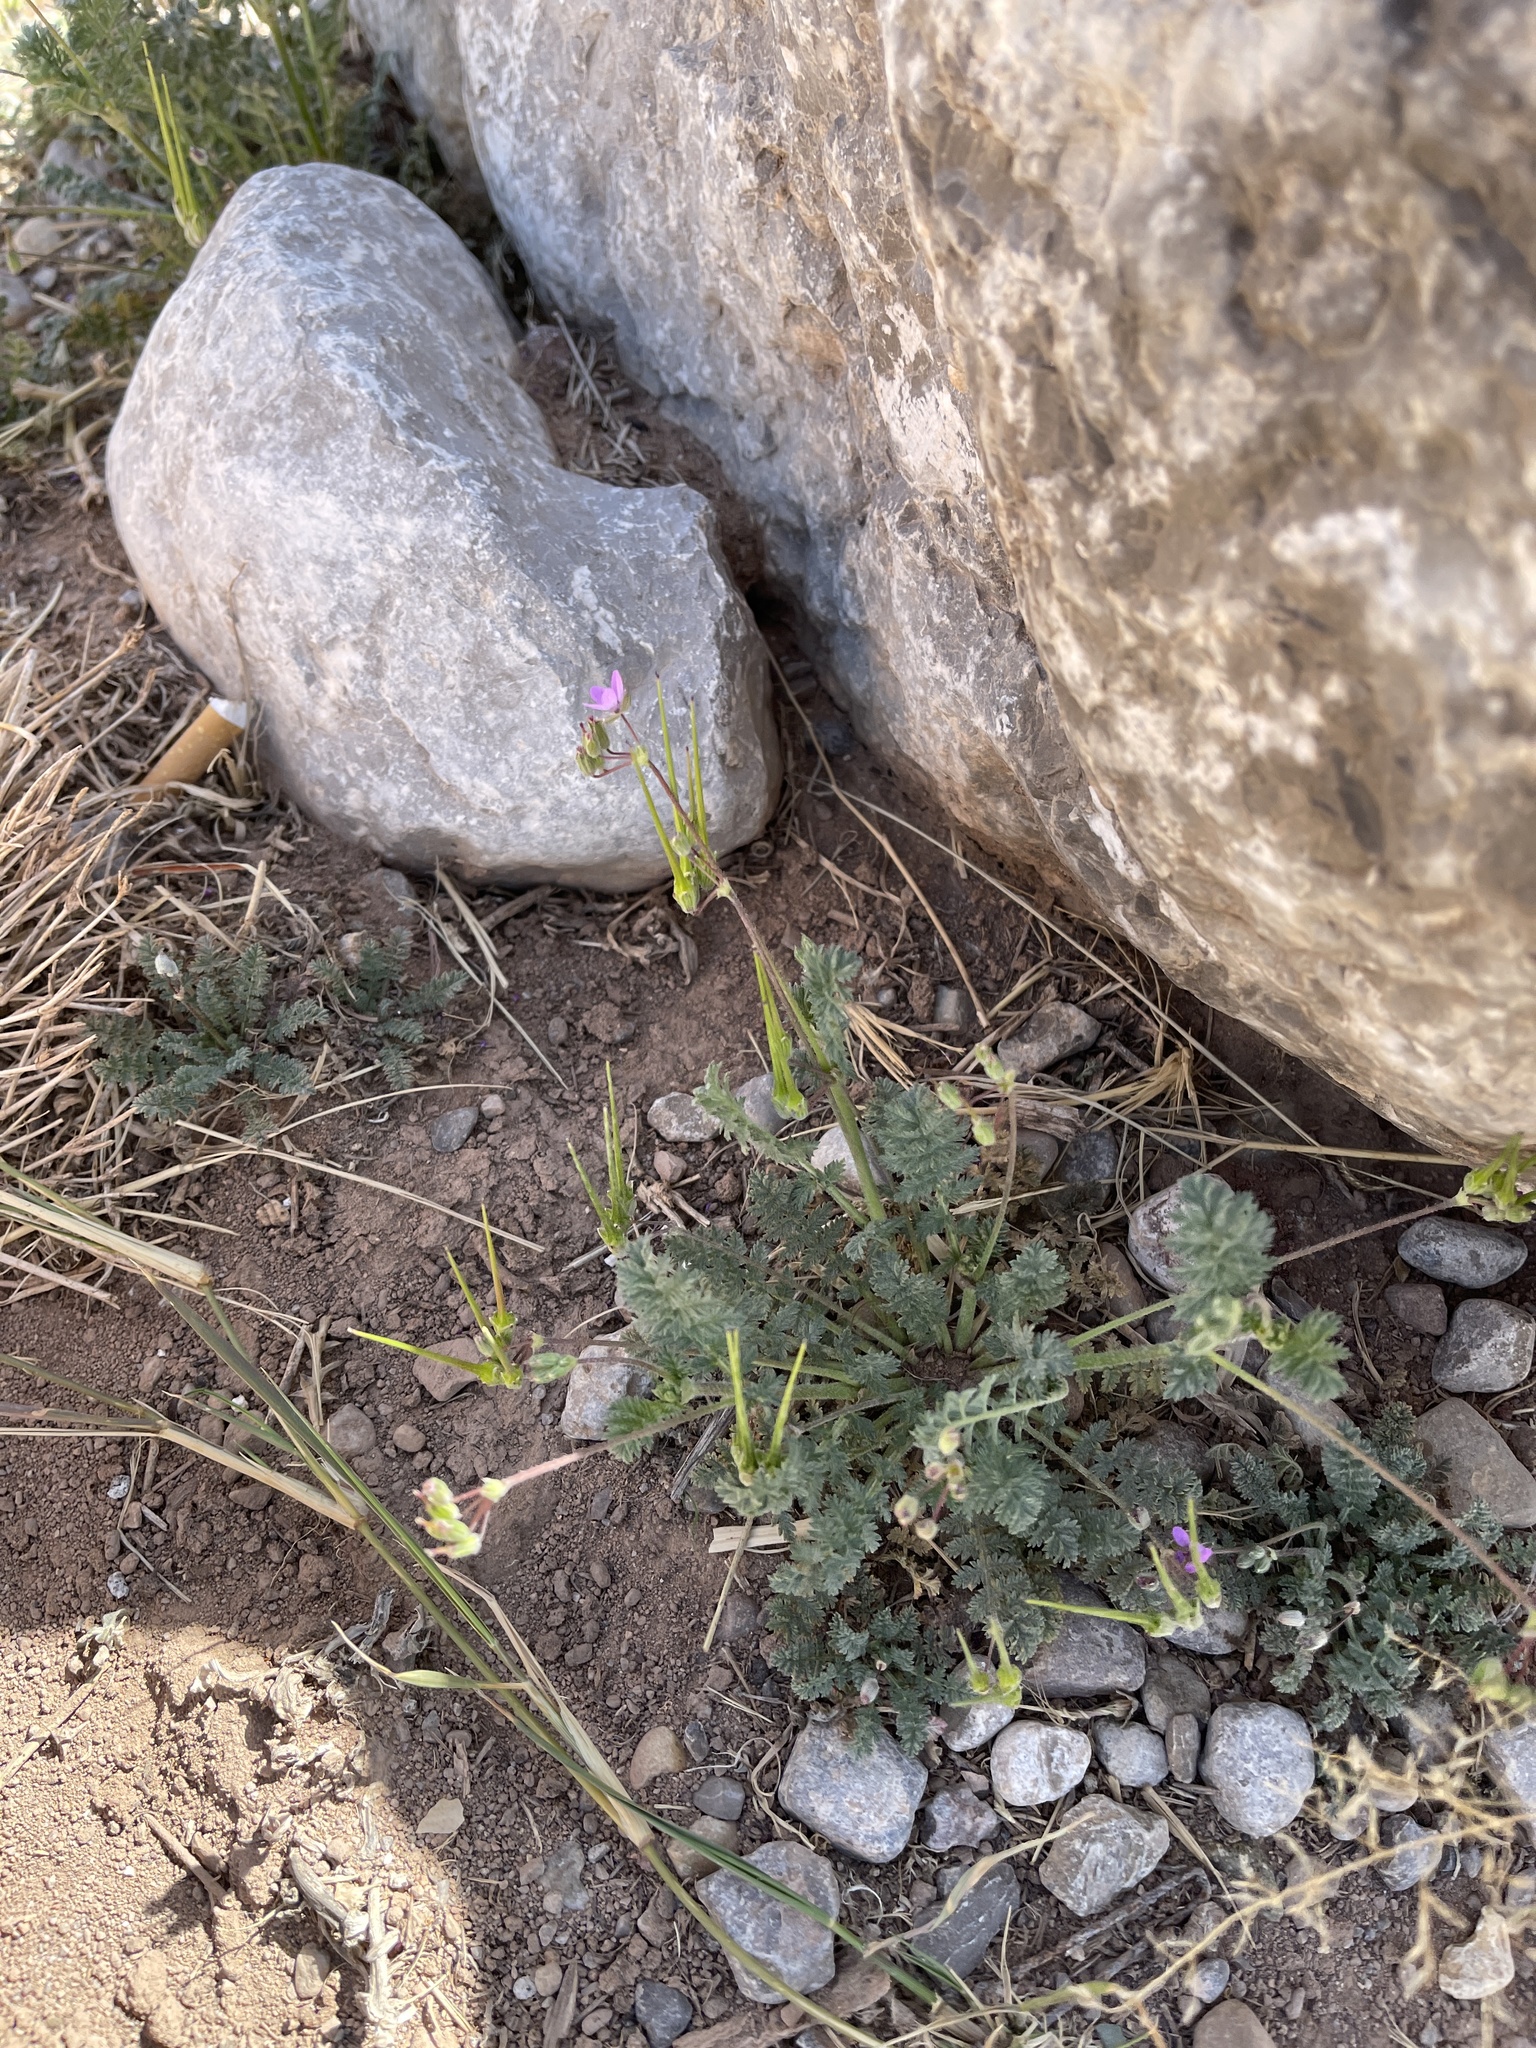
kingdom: Plantae
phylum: Tracheophyta
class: Magnoliopsida
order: Geraniales
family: Geraniaceae
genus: Erodium
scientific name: Erodium cicutarium
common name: Common stork's-bill
